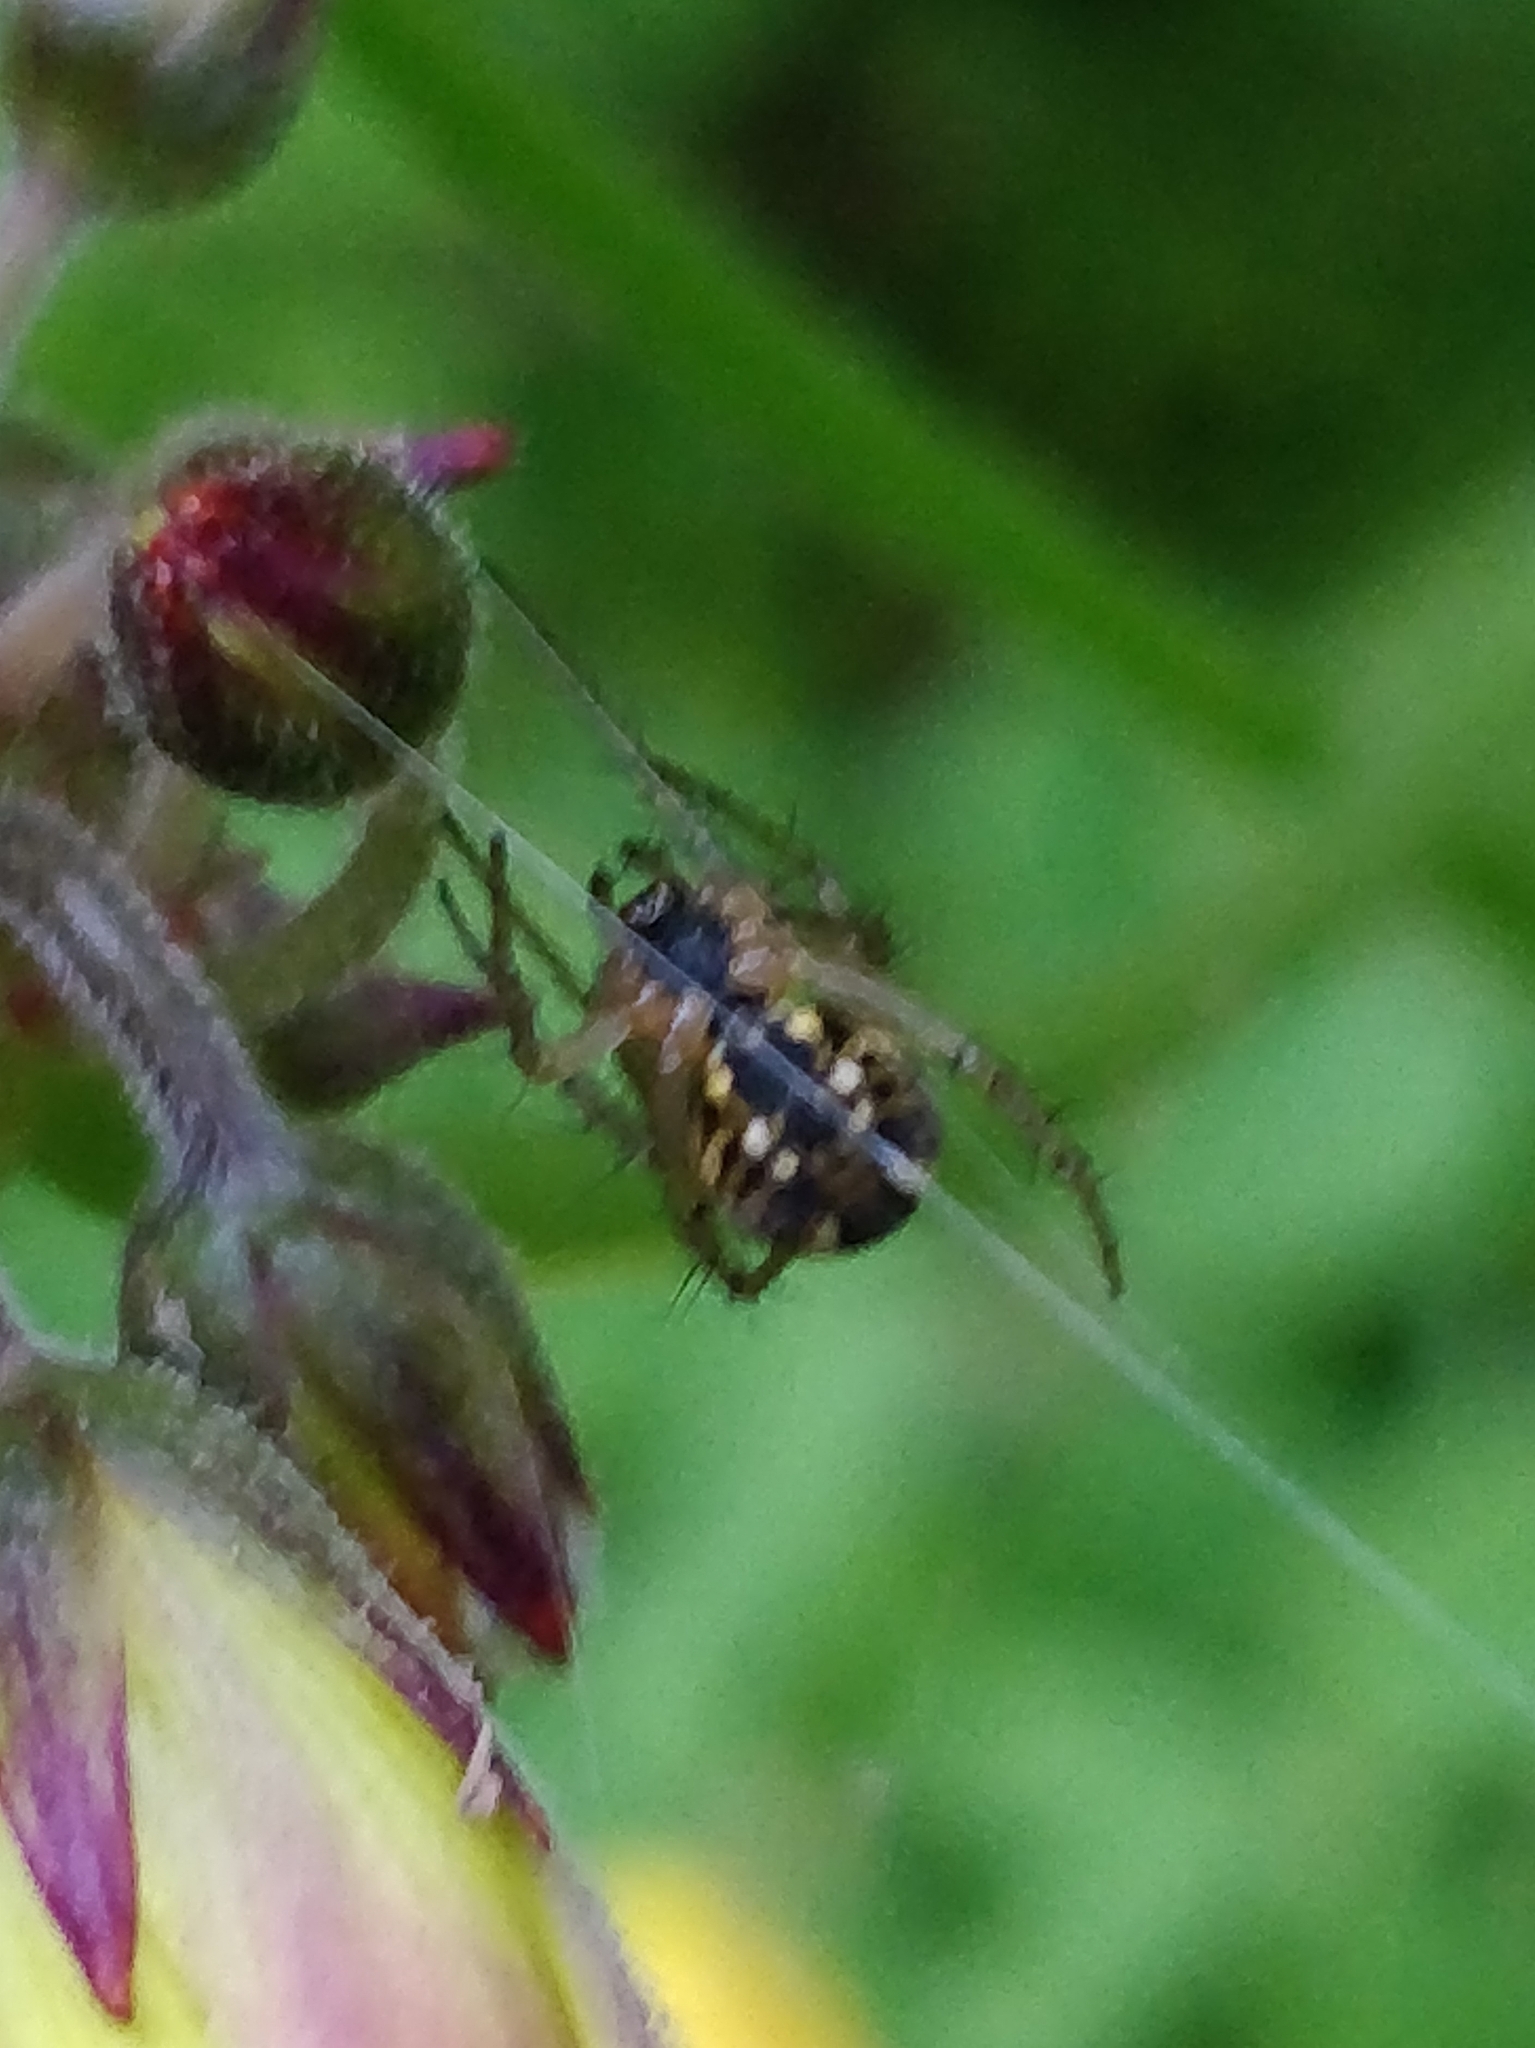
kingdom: Animalia
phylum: Arthropoda
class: Arachnida
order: Araneae
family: Araneidae
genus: Mangora
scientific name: Mangora acalypha
